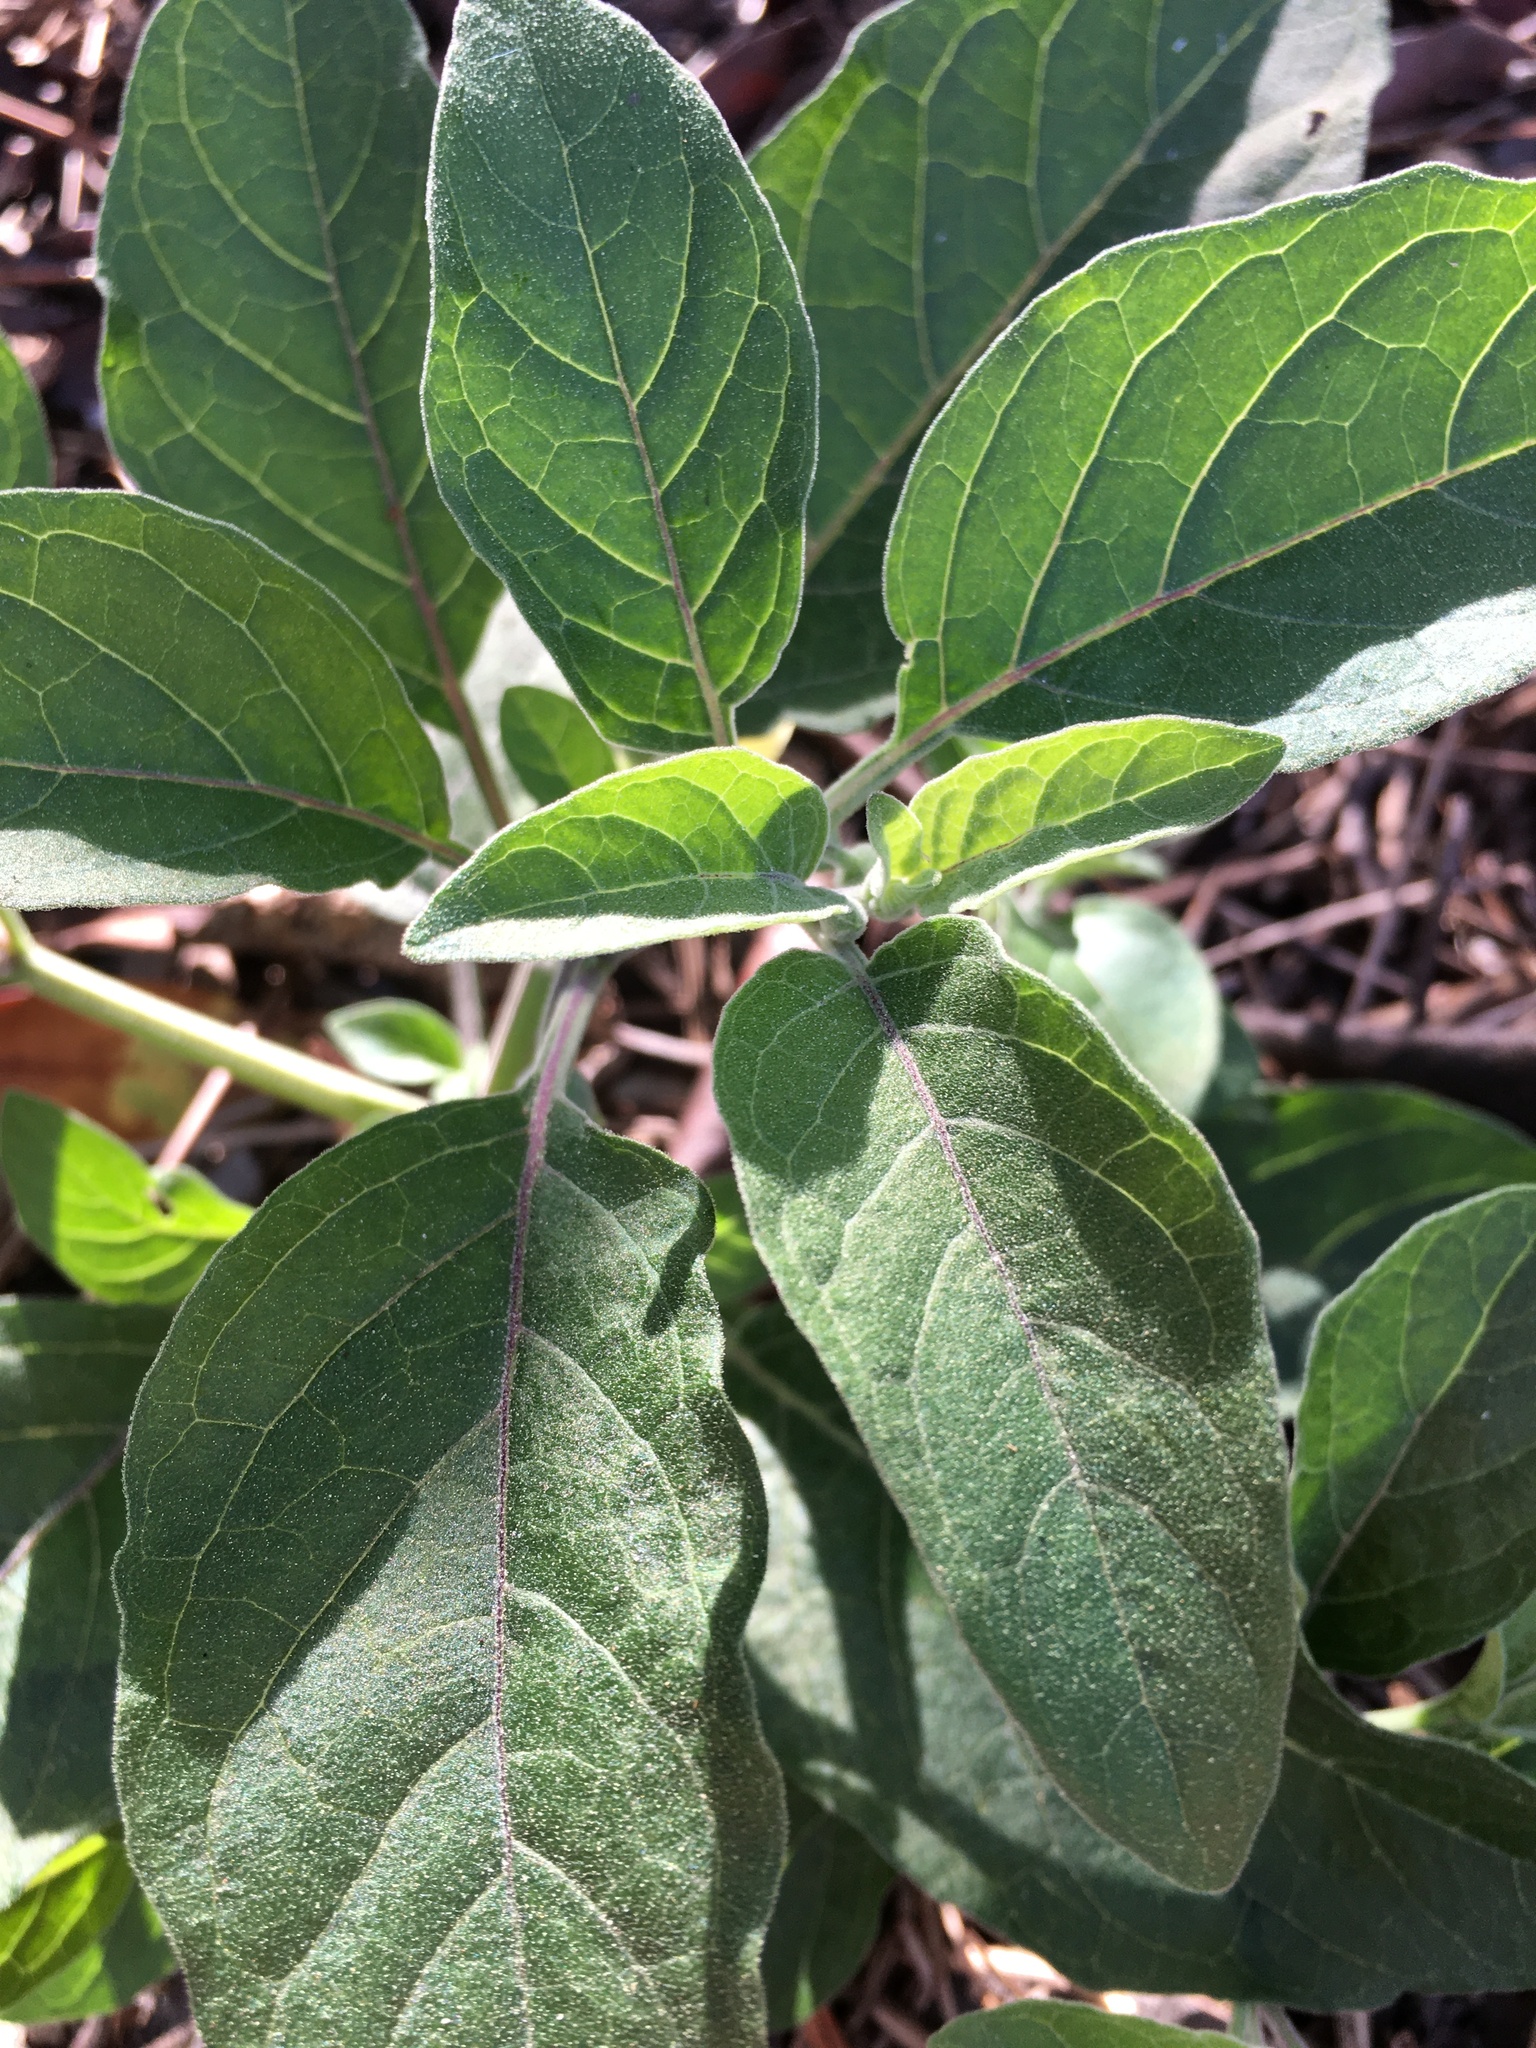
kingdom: Plantae
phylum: Tracheophyta
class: Magnoliopsida
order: Solanales
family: Solanaceae
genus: Physalis
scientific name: Physalis walteri
